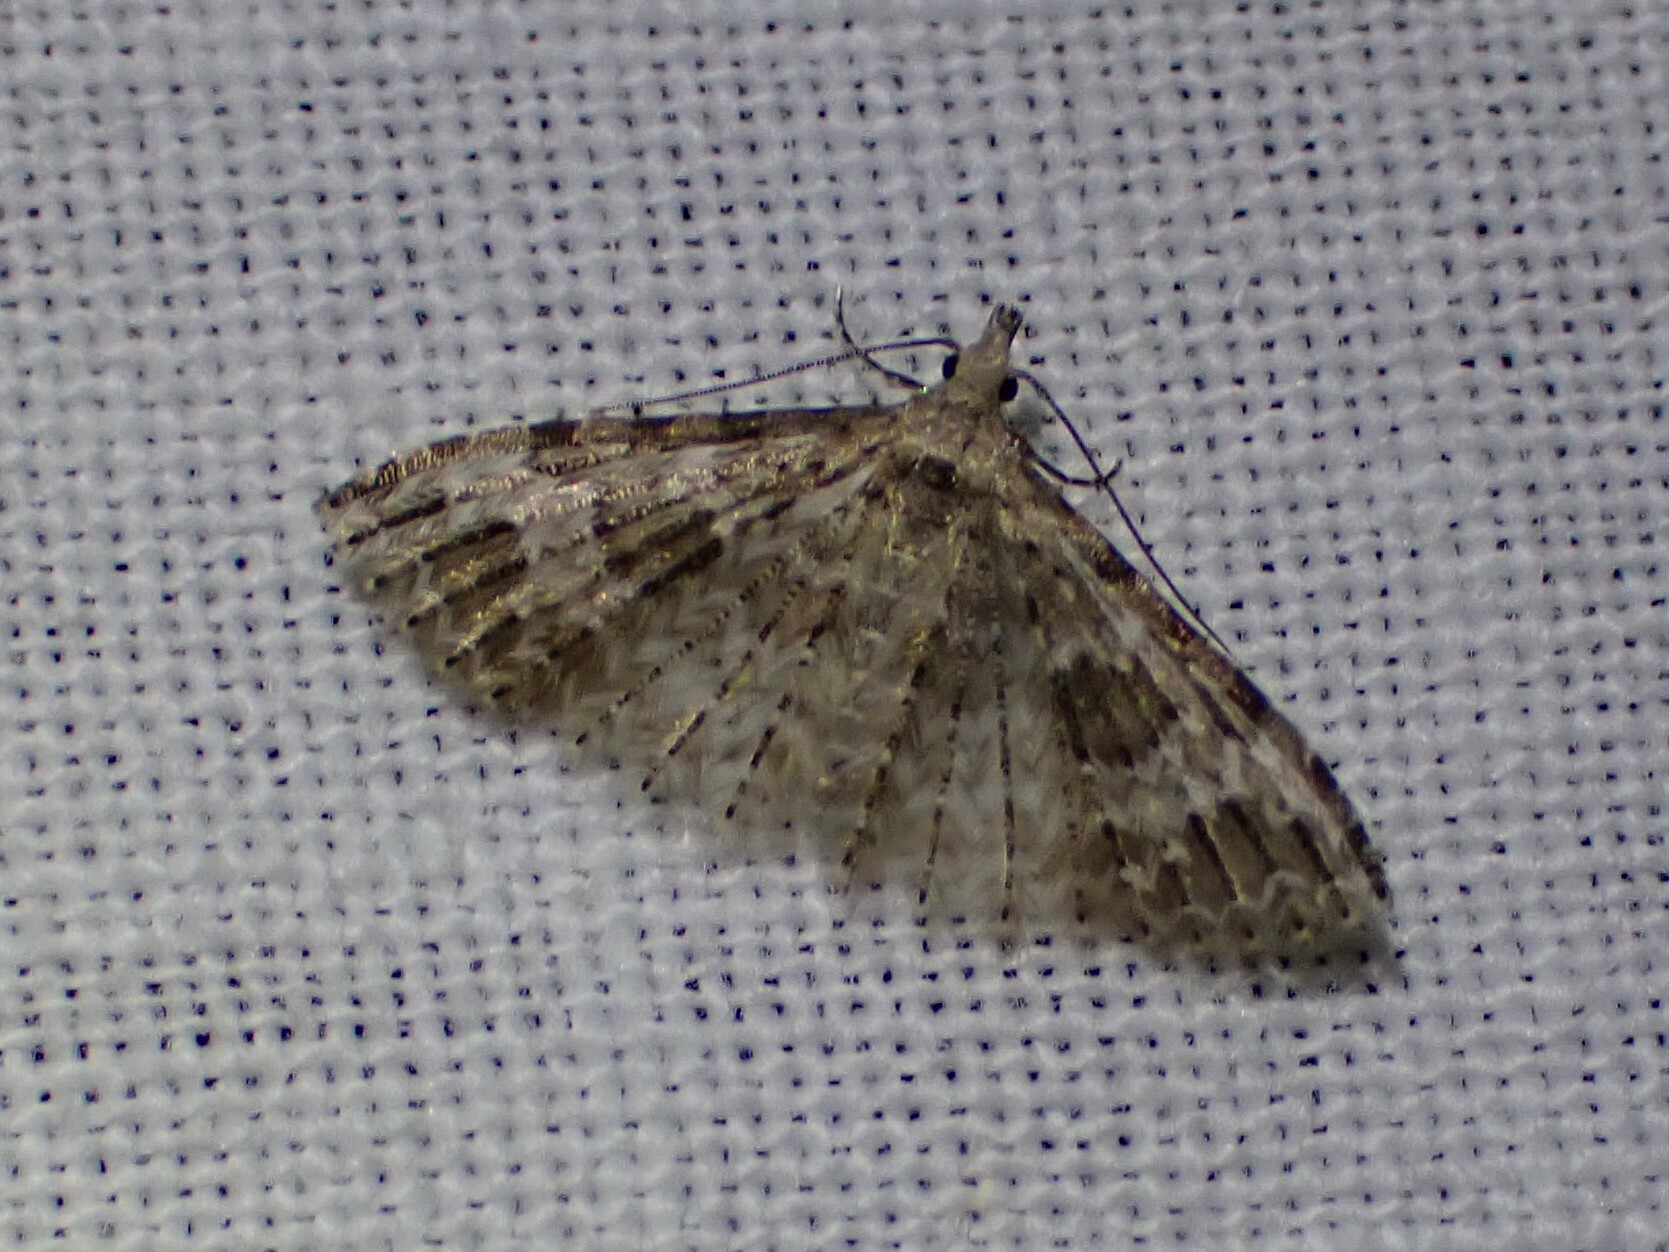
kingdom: Animalia
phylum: Arthropoda
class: Insecta
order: Lepidoptera
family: Alucitidae
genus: Alucita
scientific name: Alucita montana
